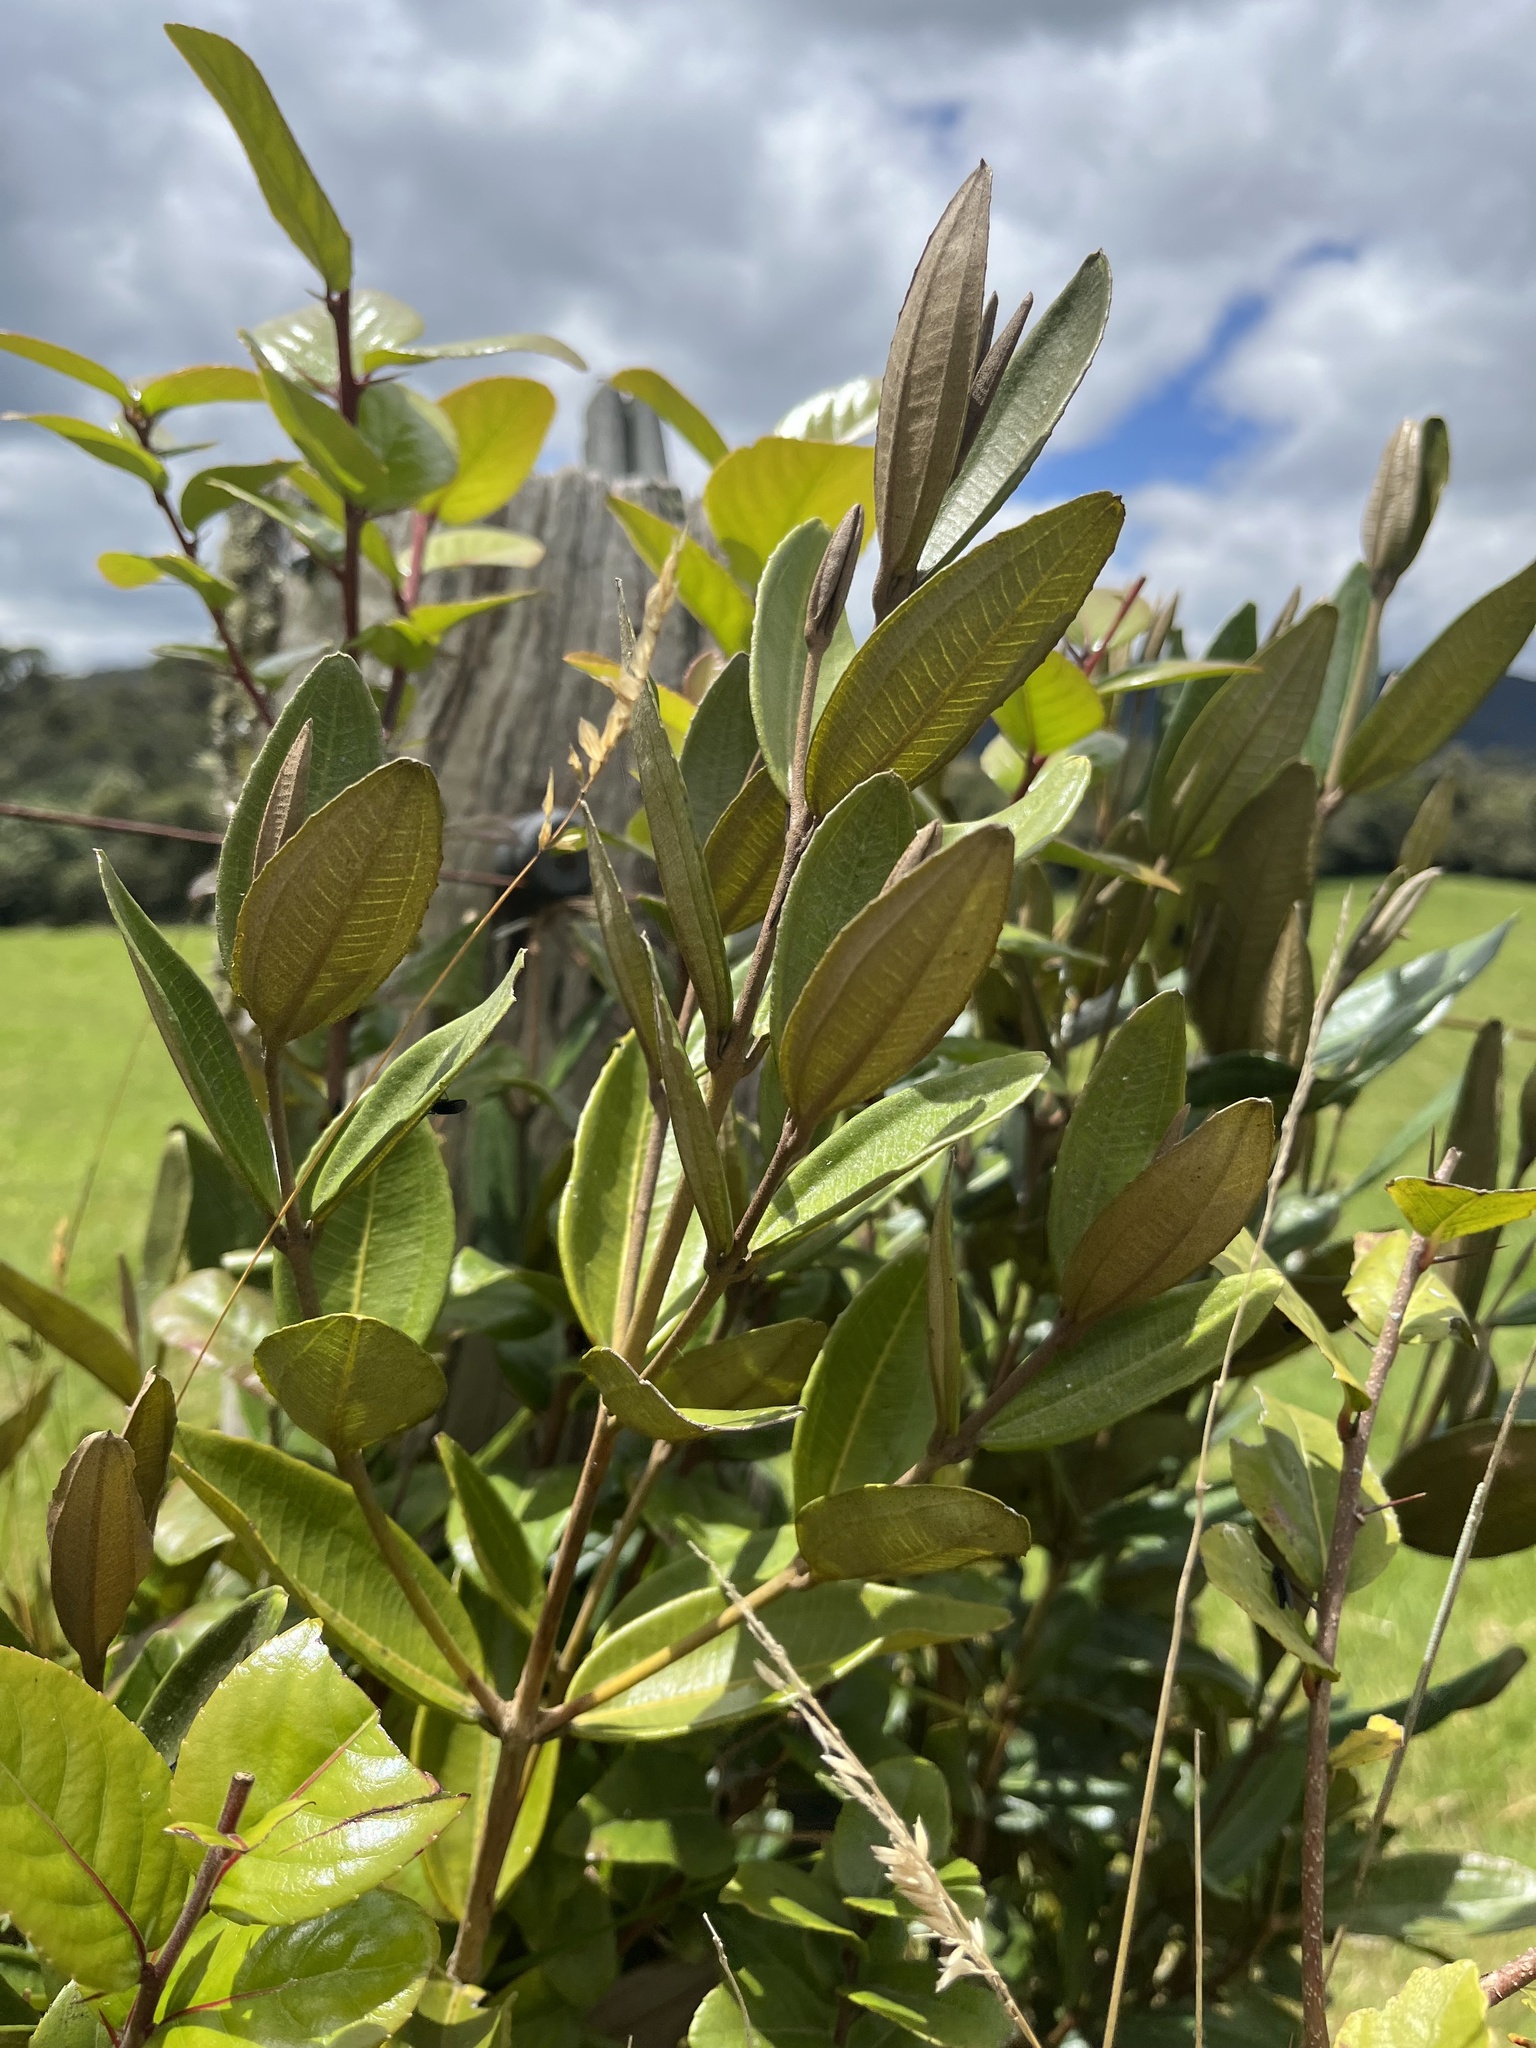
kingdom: Plantae
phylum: Tracheophyta
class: Magnoliopsida
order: Myrtales
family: Melastomataceae
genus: Miconia
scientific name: Miconia squamulosa
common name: Squamulose maya
